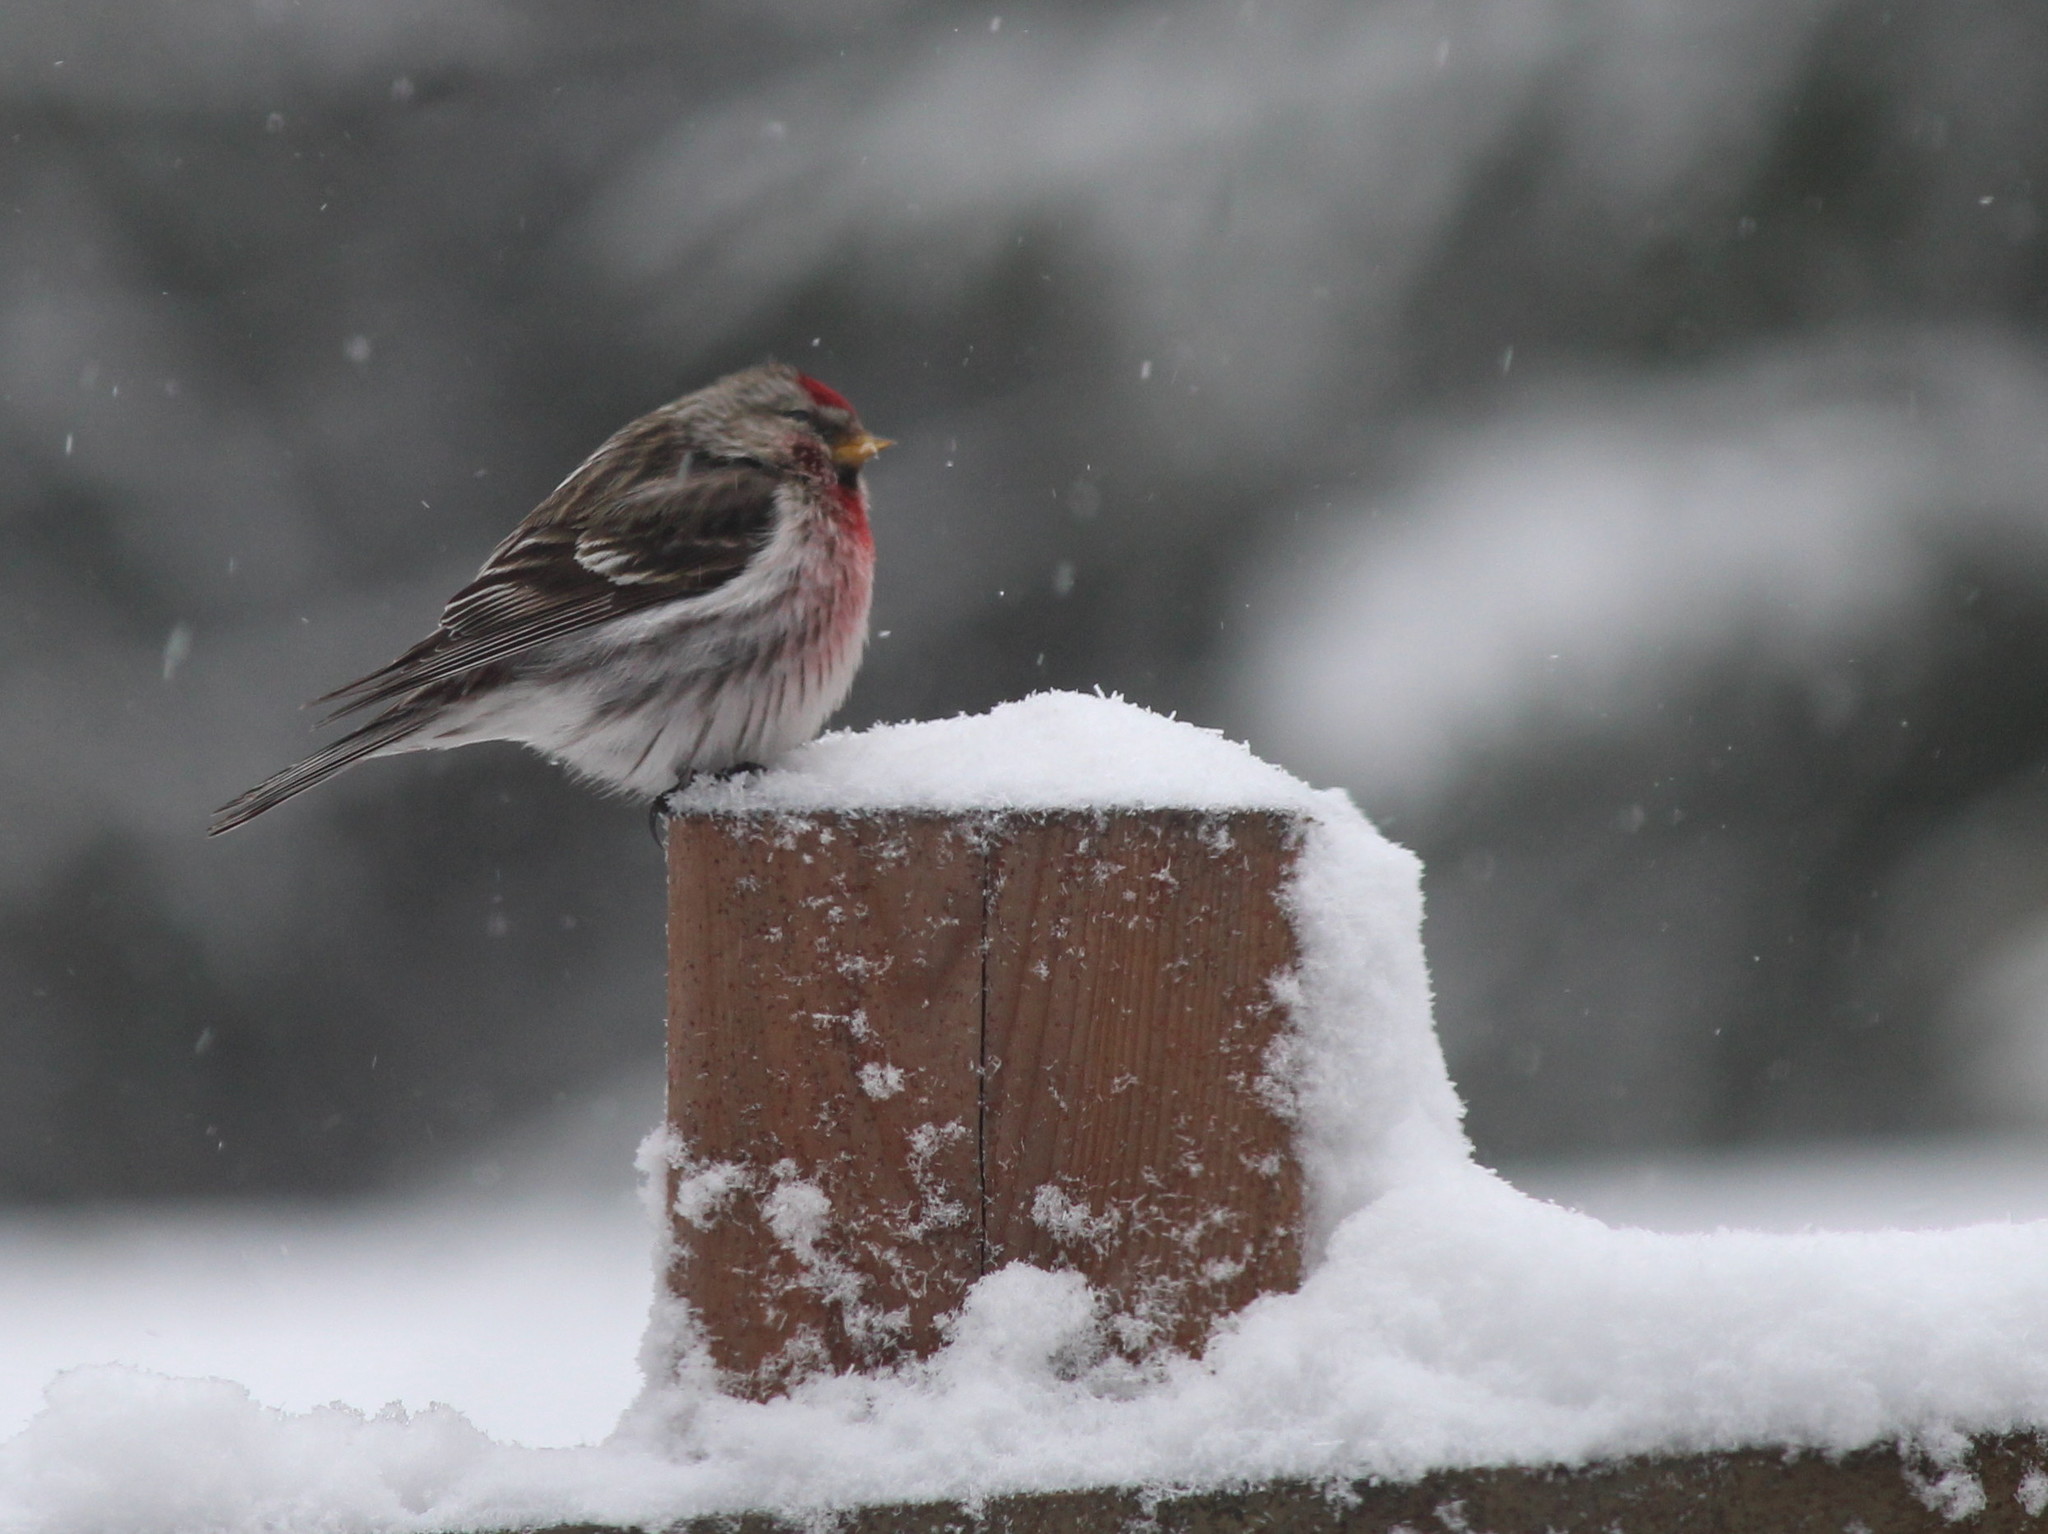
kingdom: Animalia
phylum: Chordata
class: Aves
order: Passeriformes
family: Fringillidae
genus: Acanthis
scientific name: Acanthis flammea
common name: Common redpoll
